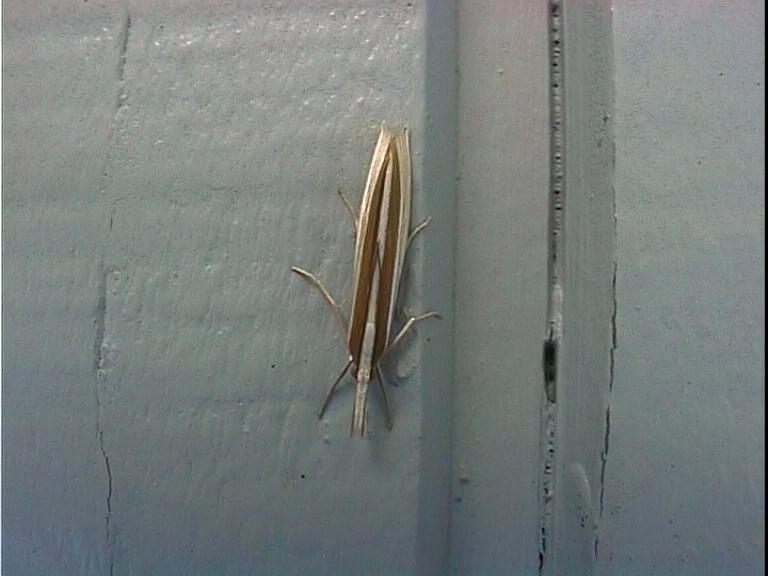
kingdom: Animalia
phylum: Arthropoda
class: Insecta
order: Lepidoptera
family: Crambidae
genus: Orocrambus
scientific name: Orocrambus angustipennis
